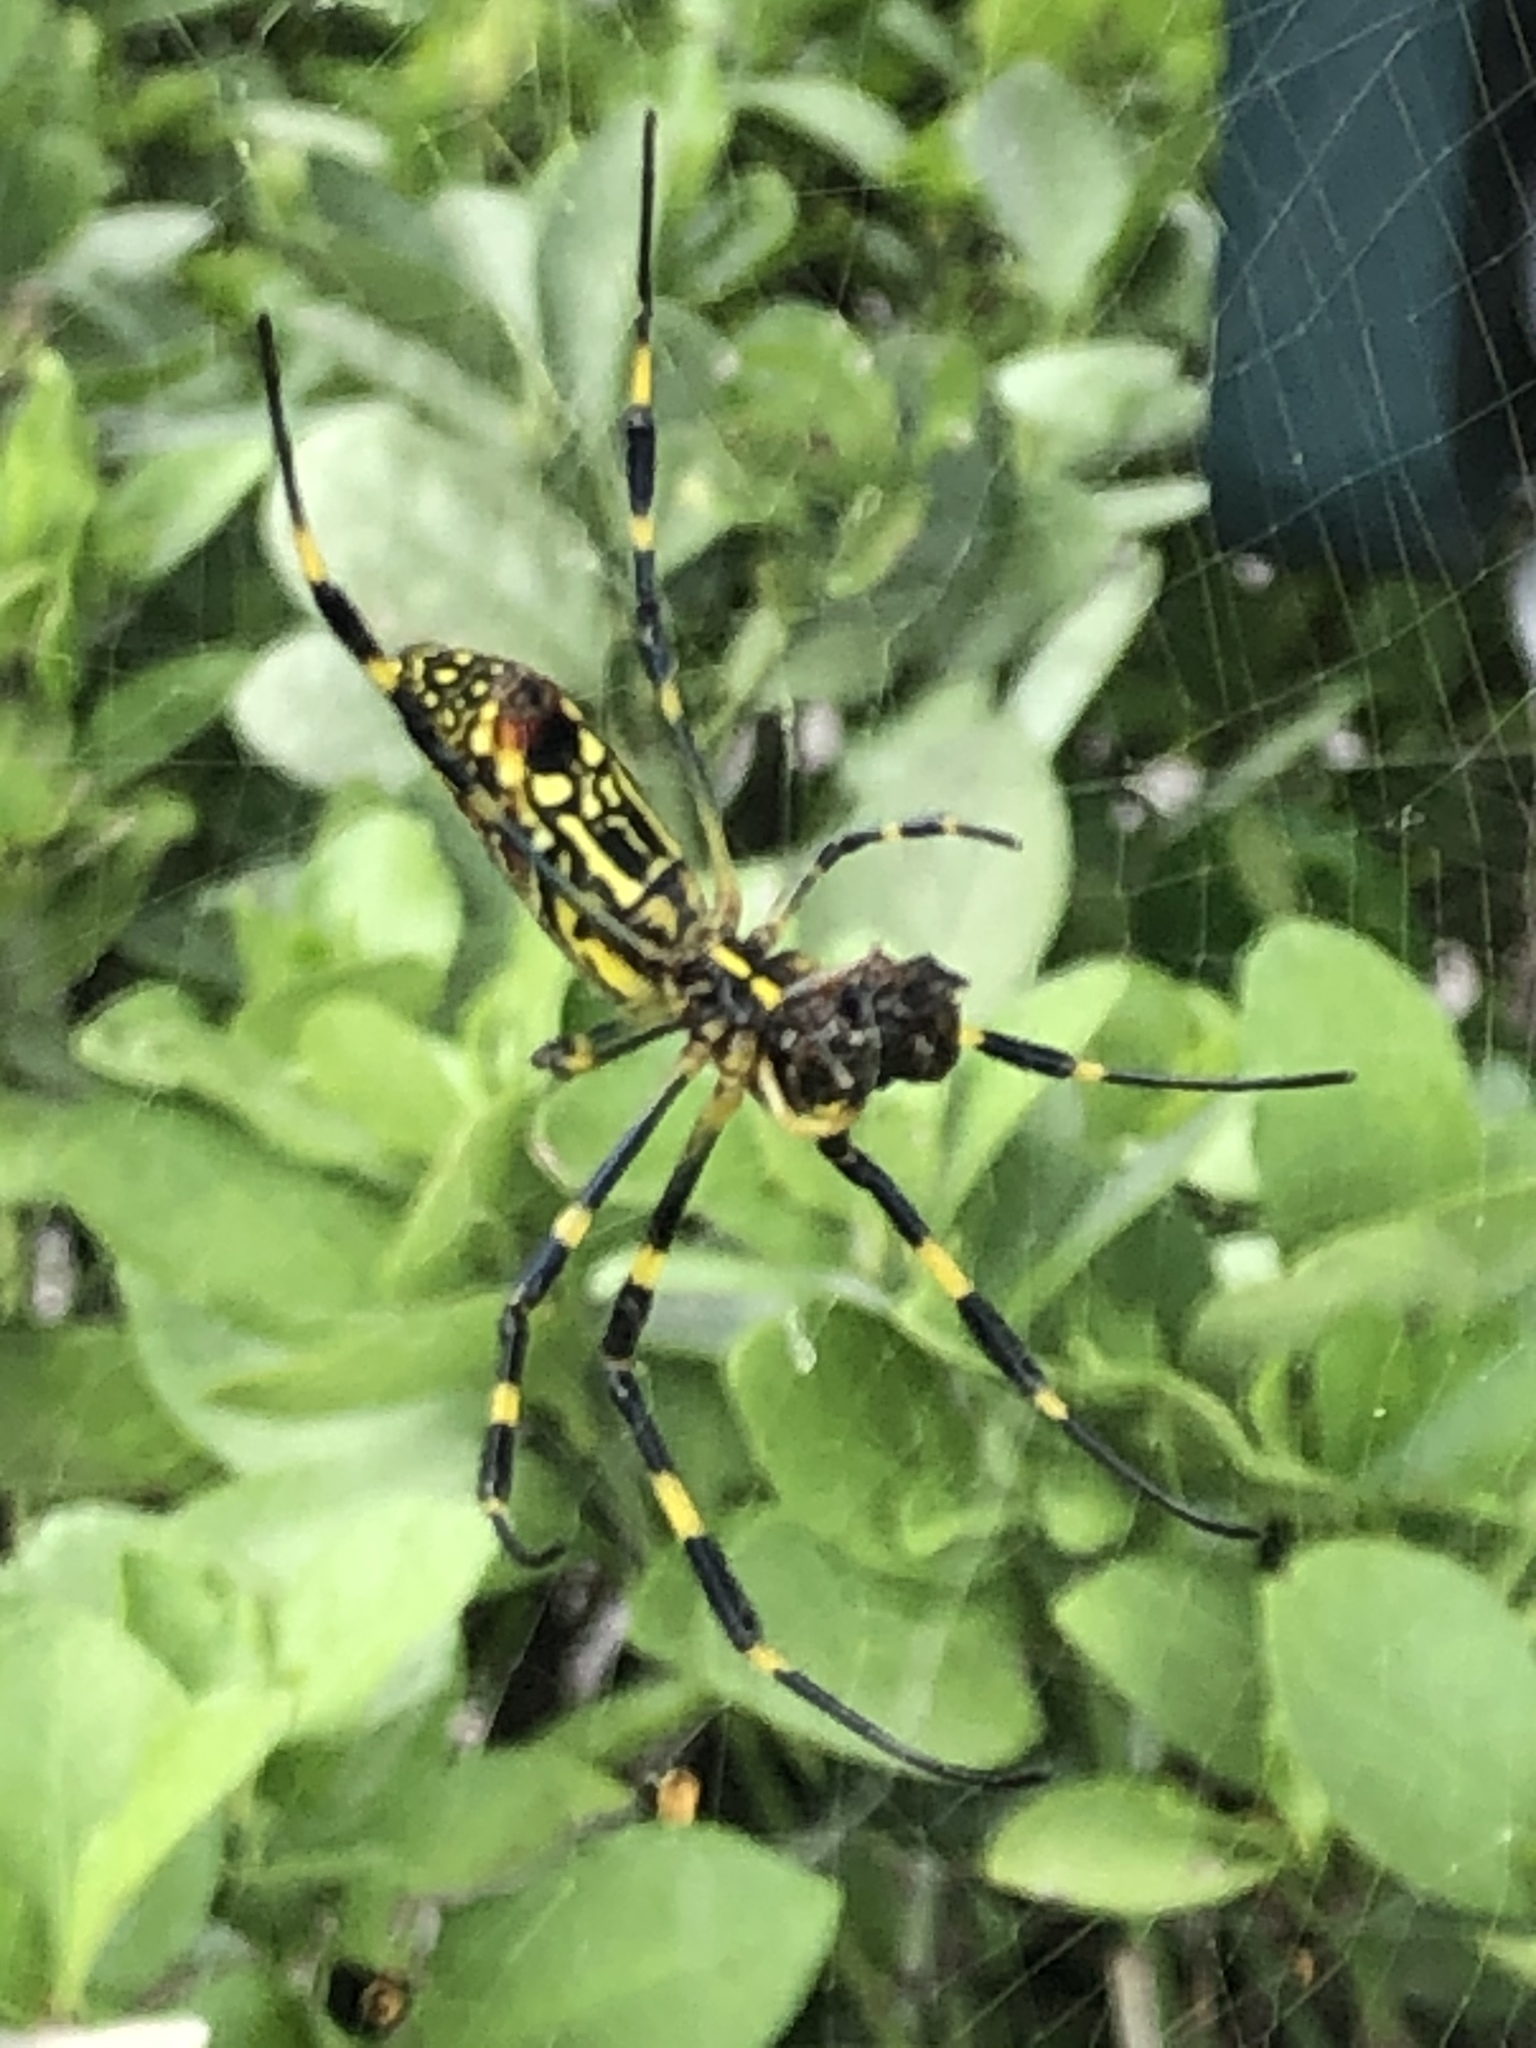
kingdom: Animalia
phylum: Arthropoda
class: Arachnida
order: Araneae
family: Araneidae
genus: Trichonephila
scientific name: Trichonephila clavata
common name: Jorō spider
